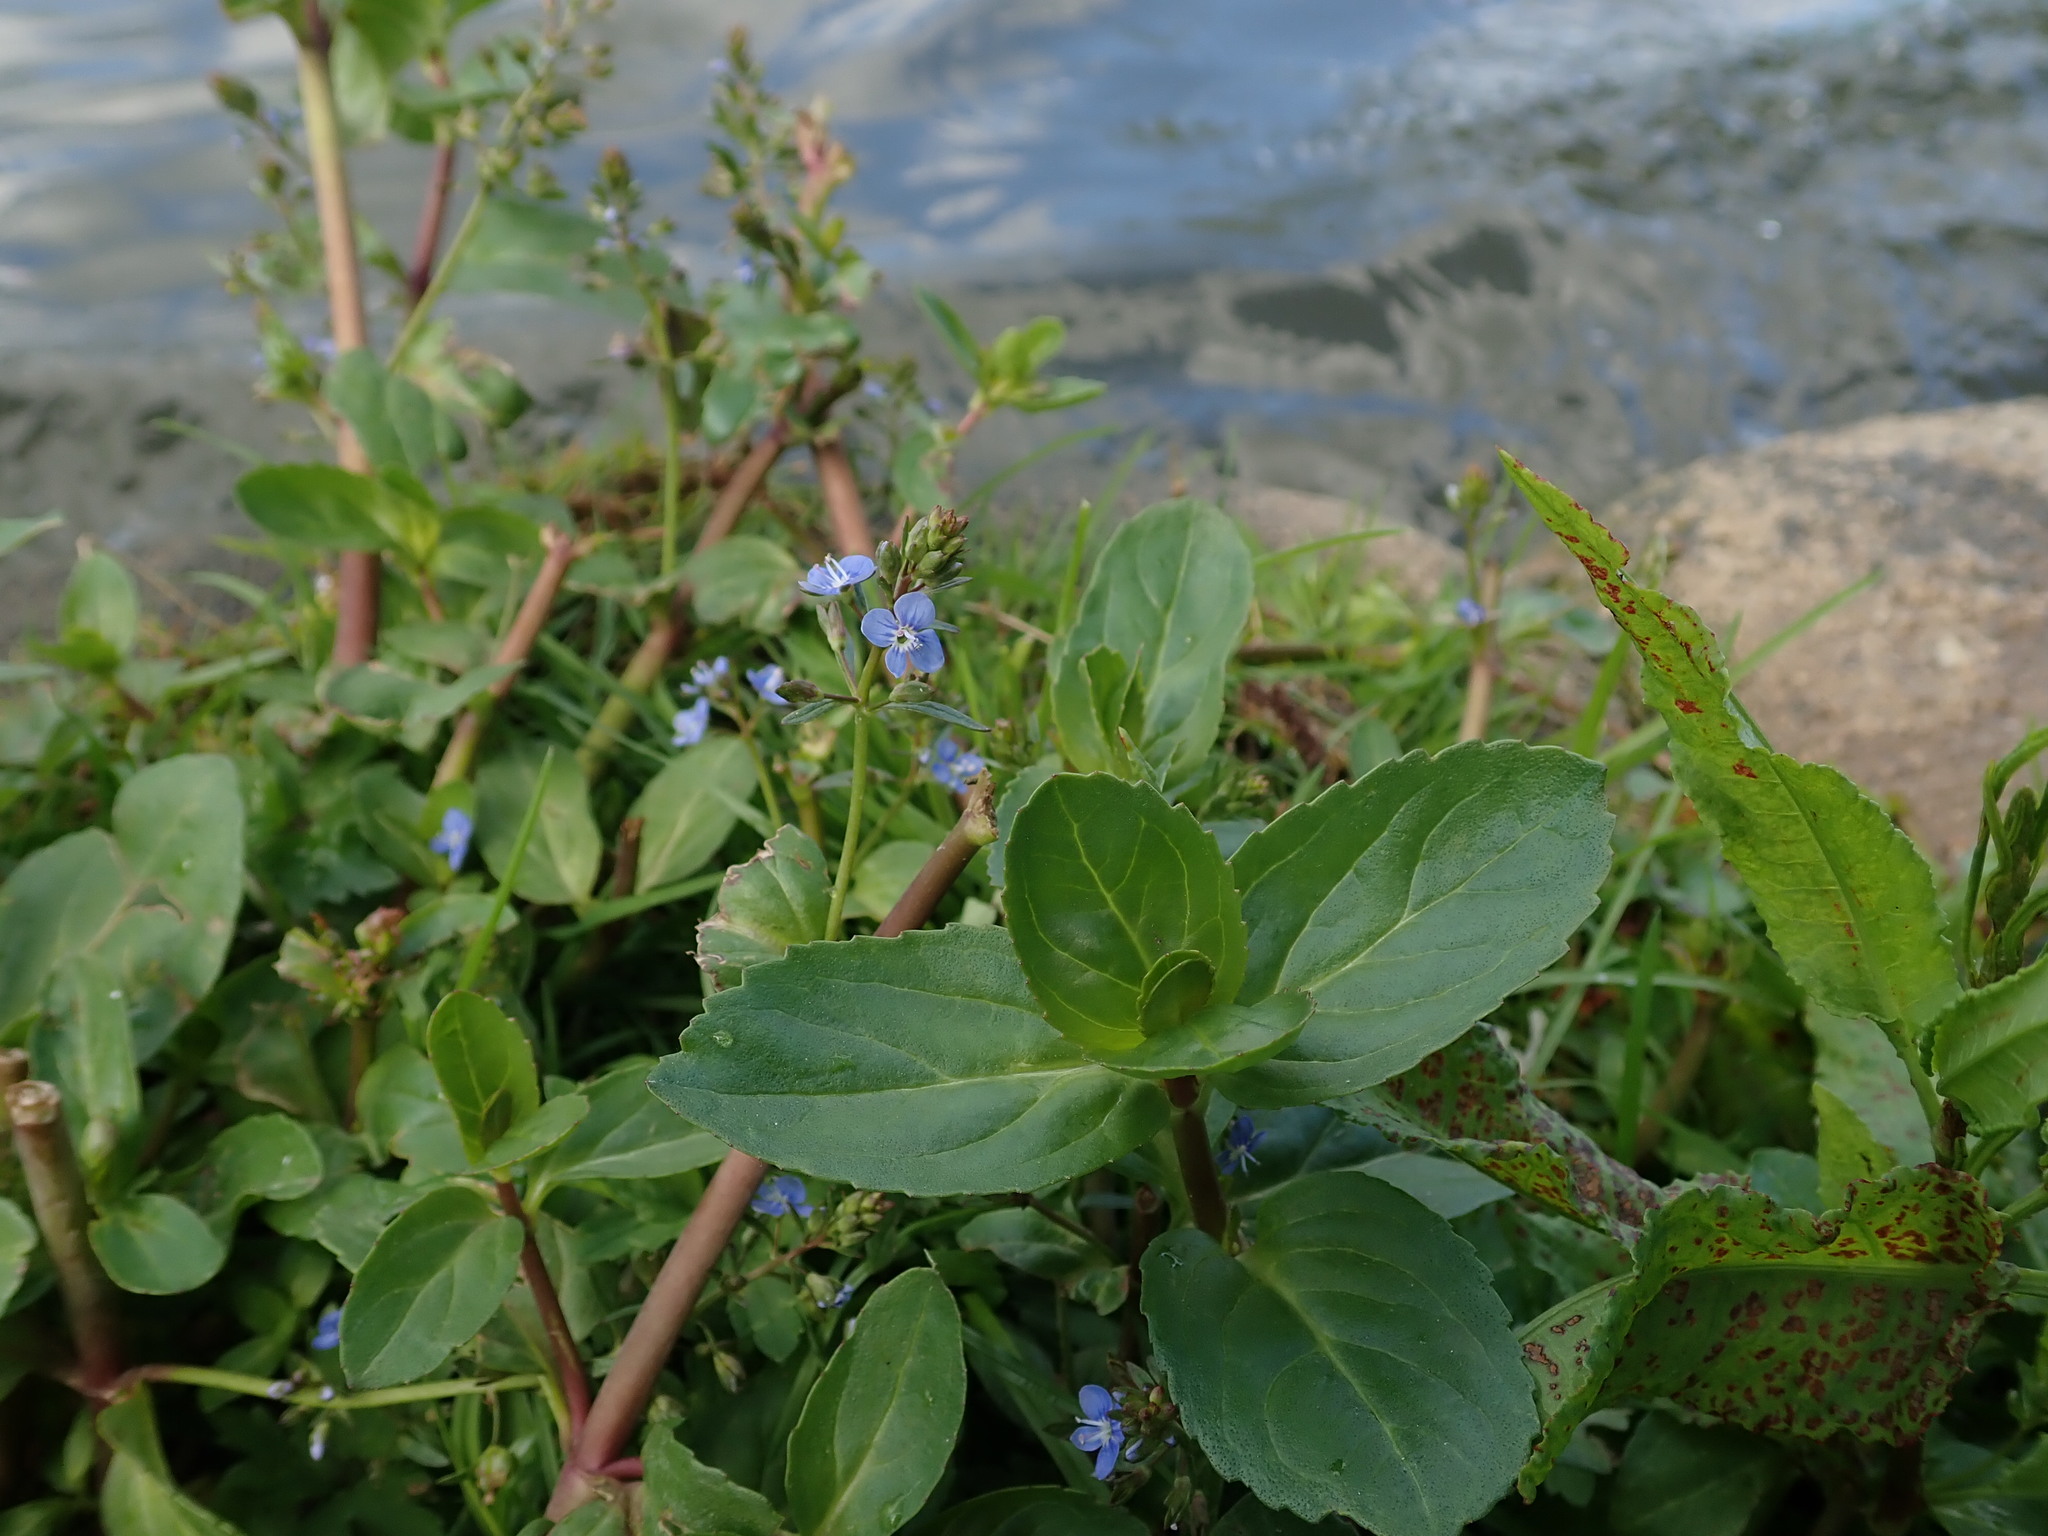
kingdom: Plantae
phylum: Tracheophyta
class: Magnoliopsida
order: Lamiales
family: Plantaginaceae
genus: Veronica
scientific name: Veronica beccabunga
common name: Brooklime
